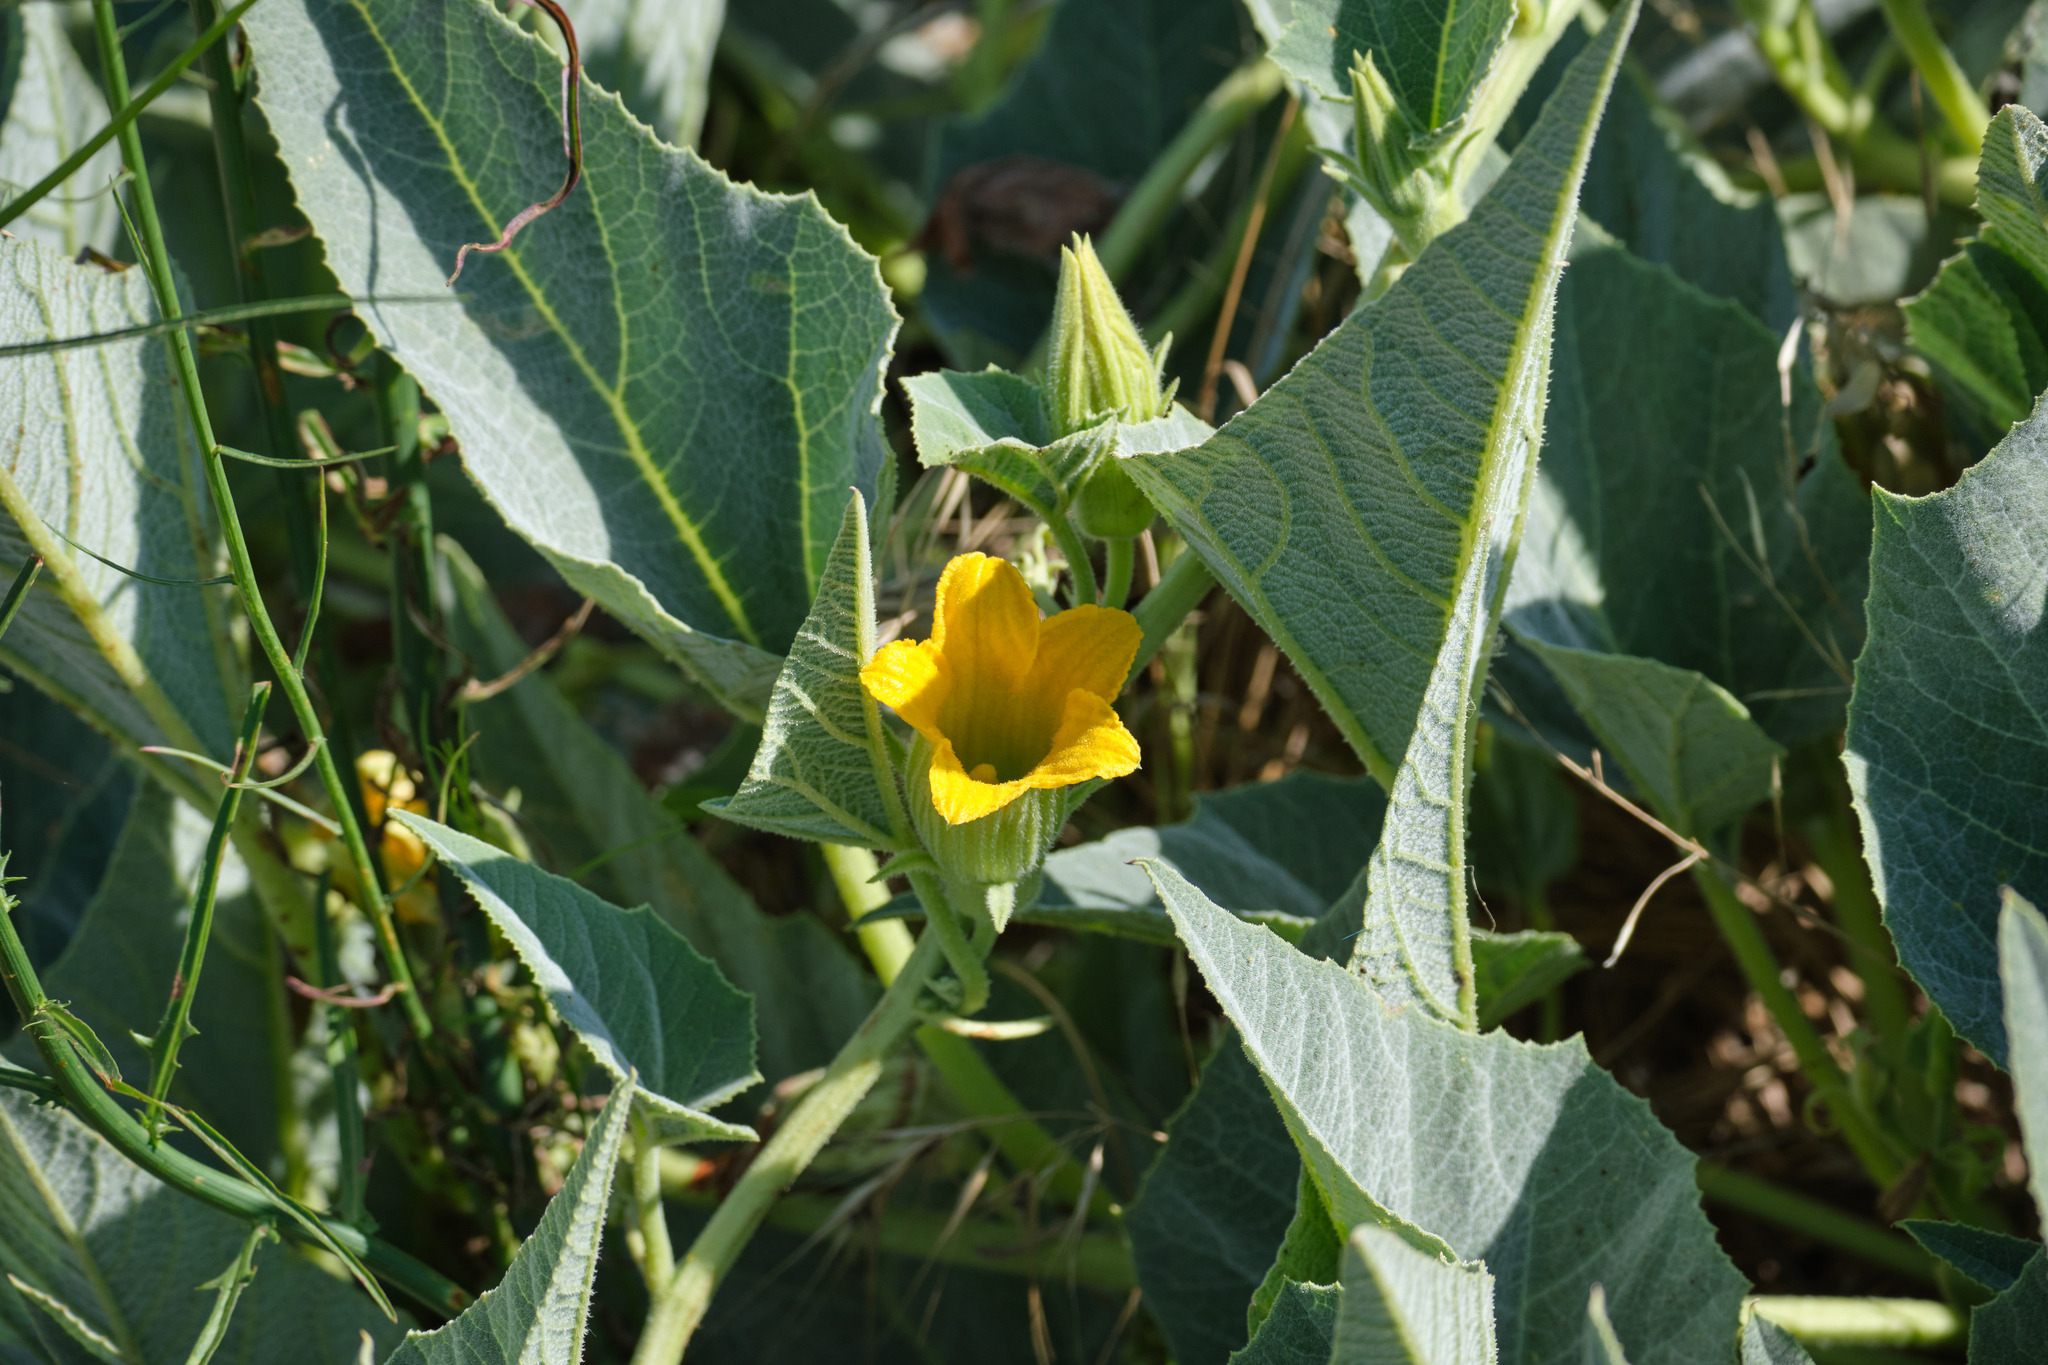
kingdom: Plantae
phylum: Tracheophyta
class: Magnoliopsida
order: Cucurbitales
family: Cucurbitaceae
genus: Cucurbita
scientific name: Cucurbita foetidissima
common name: Buffalo gourd
